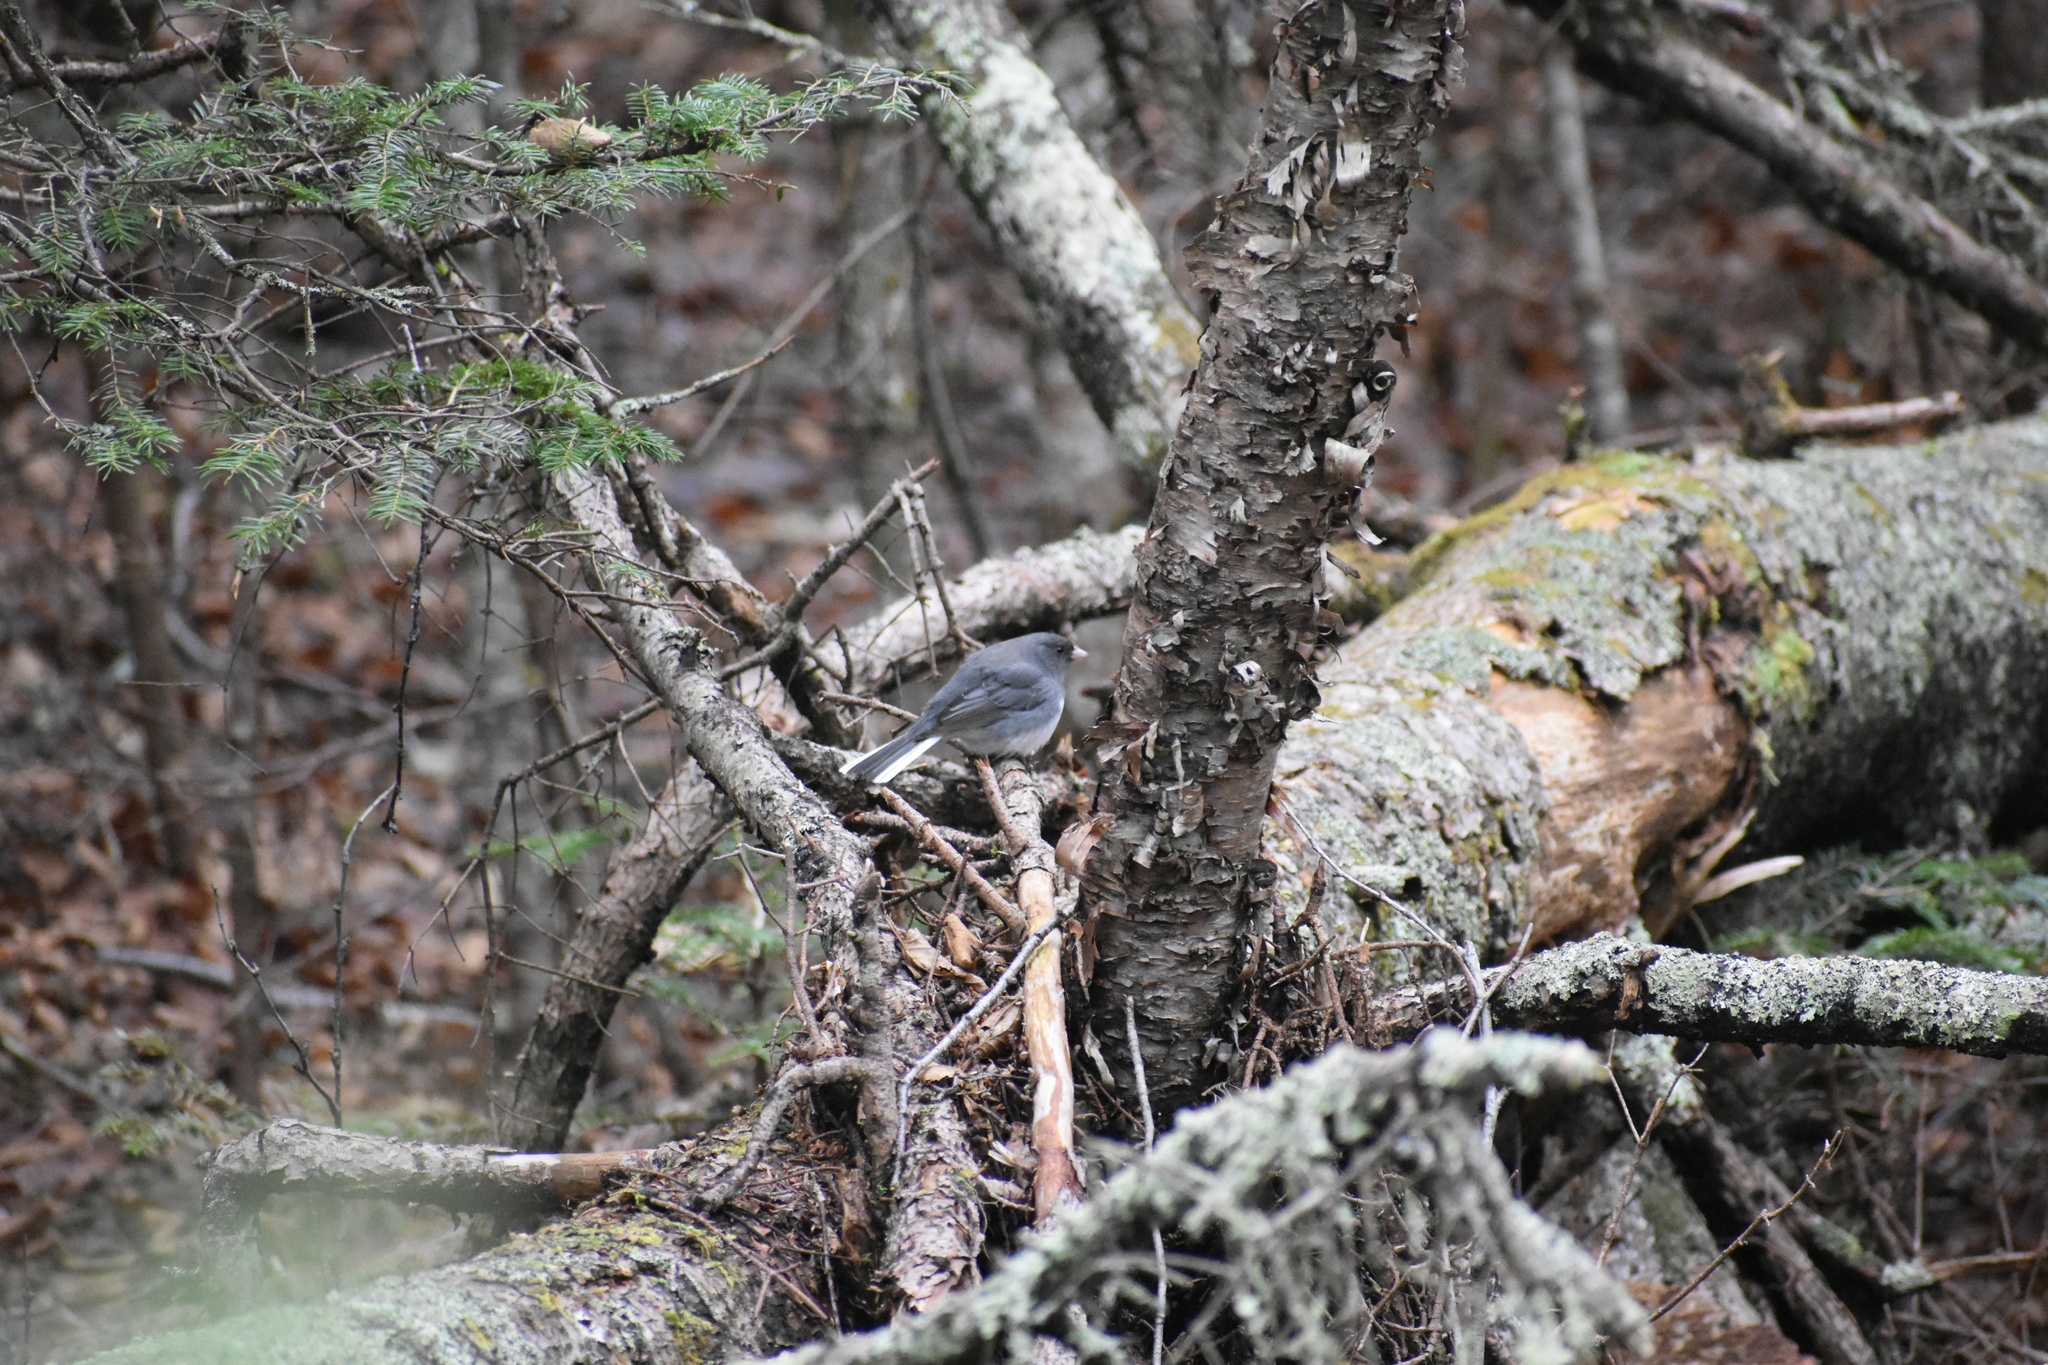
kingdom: Animalia
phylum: Chordata
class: Aves
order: Passeriformes
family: Passerellidae
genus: Junco
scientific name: Junco hyemalis
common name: Dark-eyed junco
